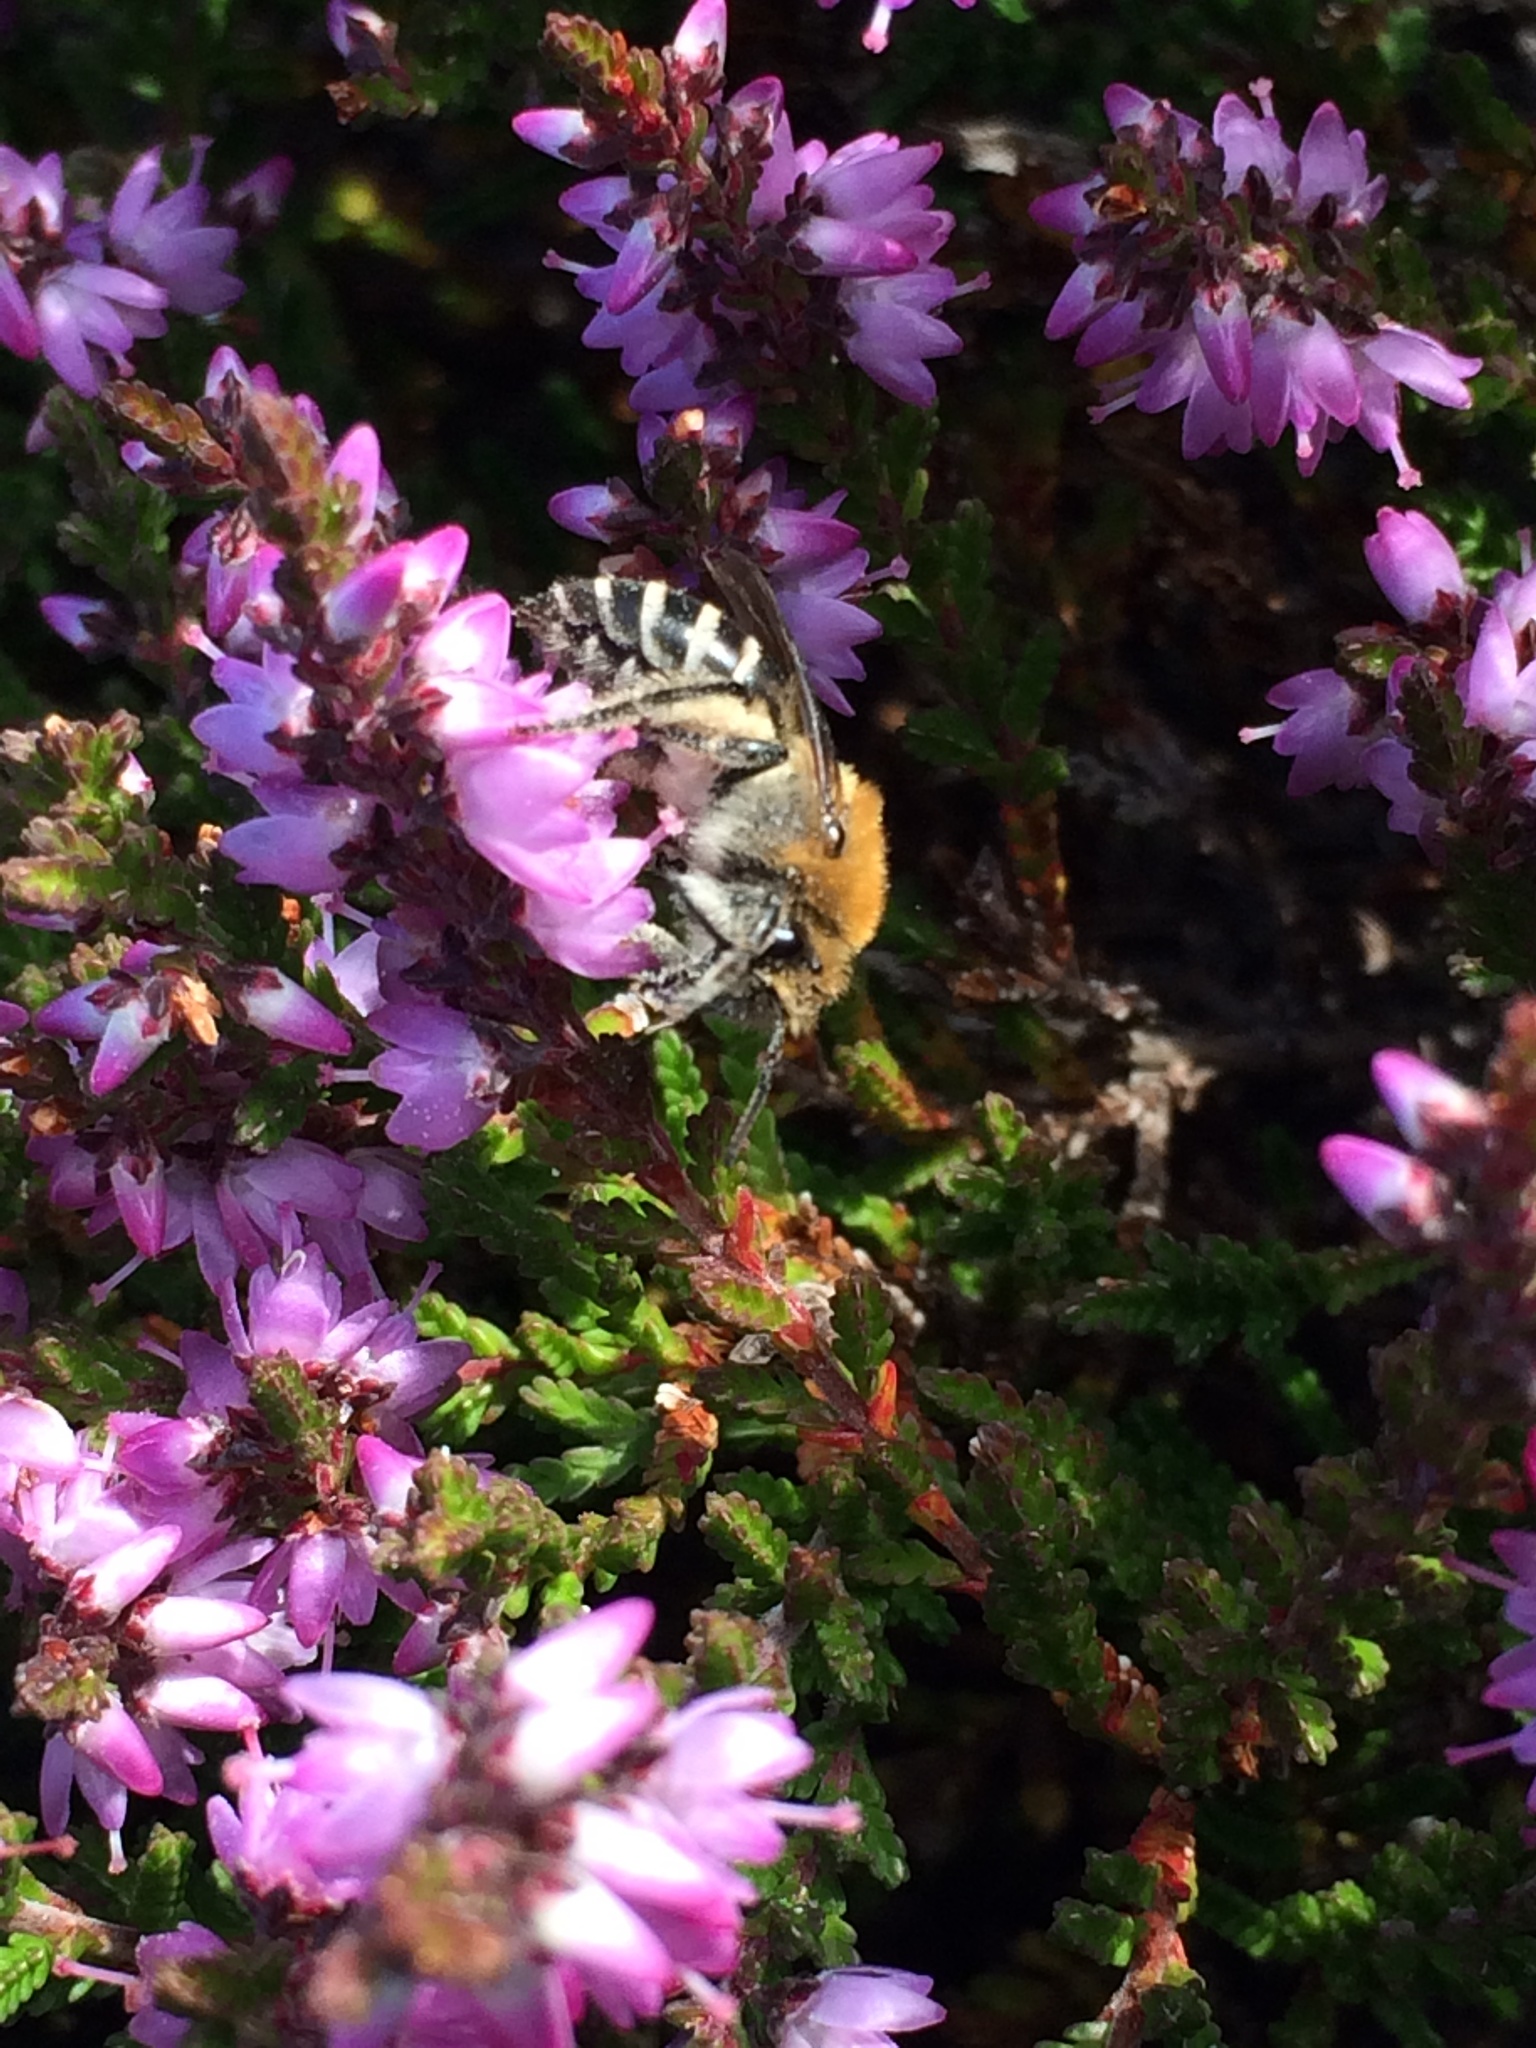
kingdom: Animalia
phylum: Arthropoda
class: Insecta
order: Hymenoptera
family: Colletidae
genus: Colletes
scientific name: Colletes succinctus
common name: Girdled colletes
